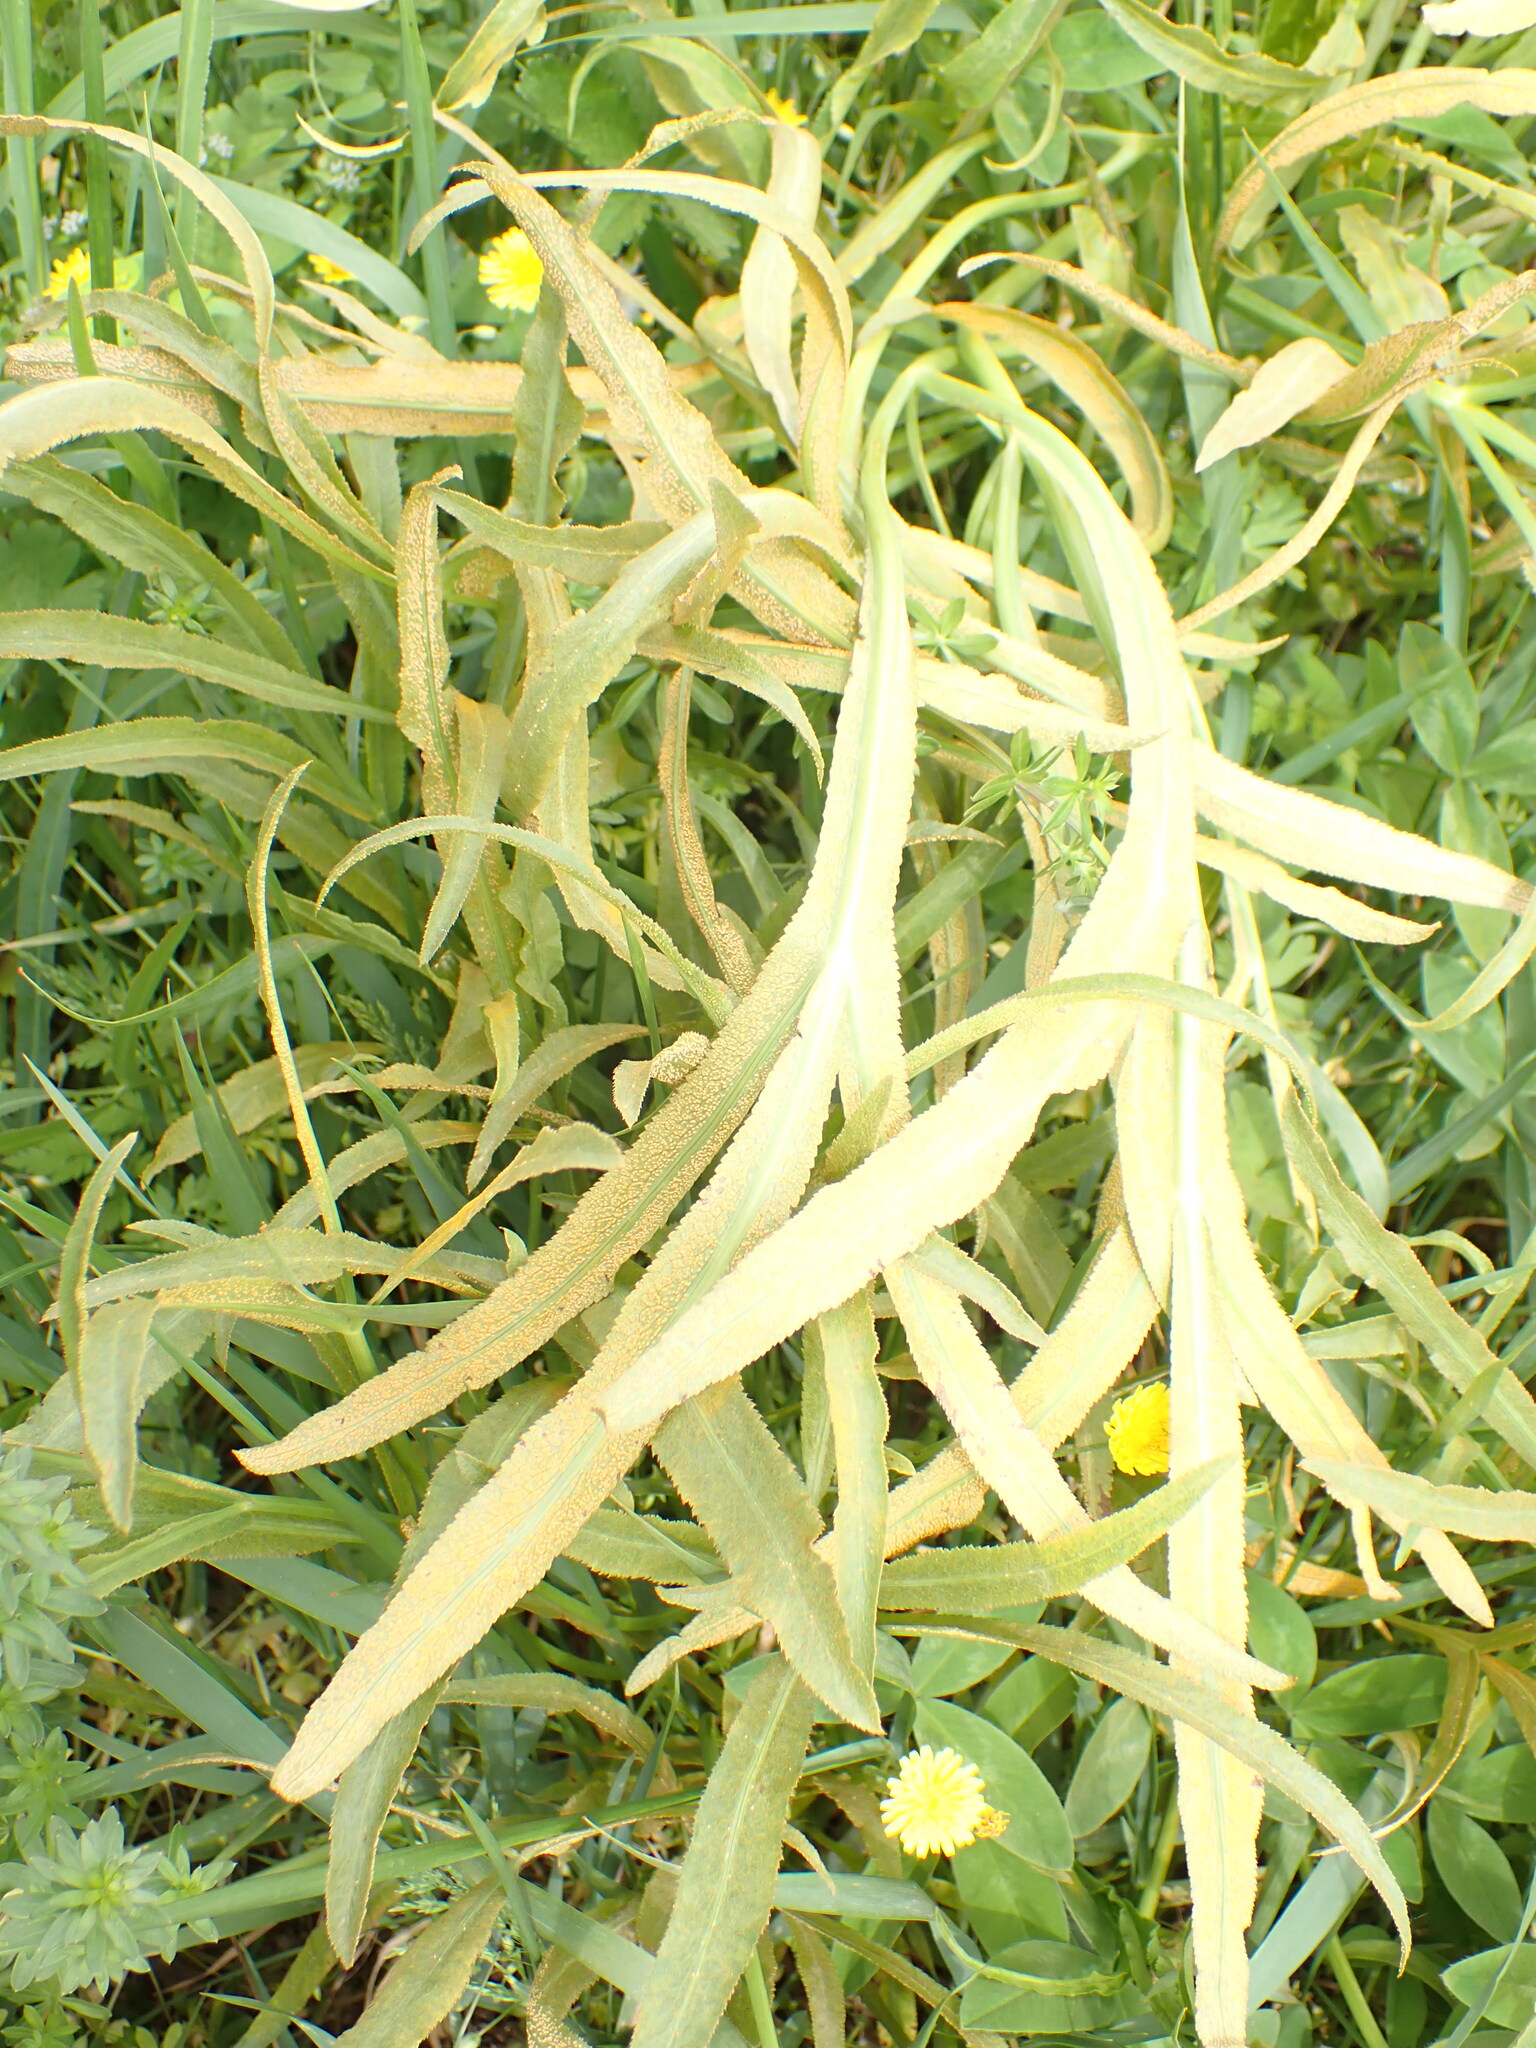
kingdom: Fungi
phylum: Basidiomycota
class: Pucciniomycetes
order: Pucciniales
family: Pucciniaceae
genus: Puccinia
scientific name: Puccinia sii-falcariae
